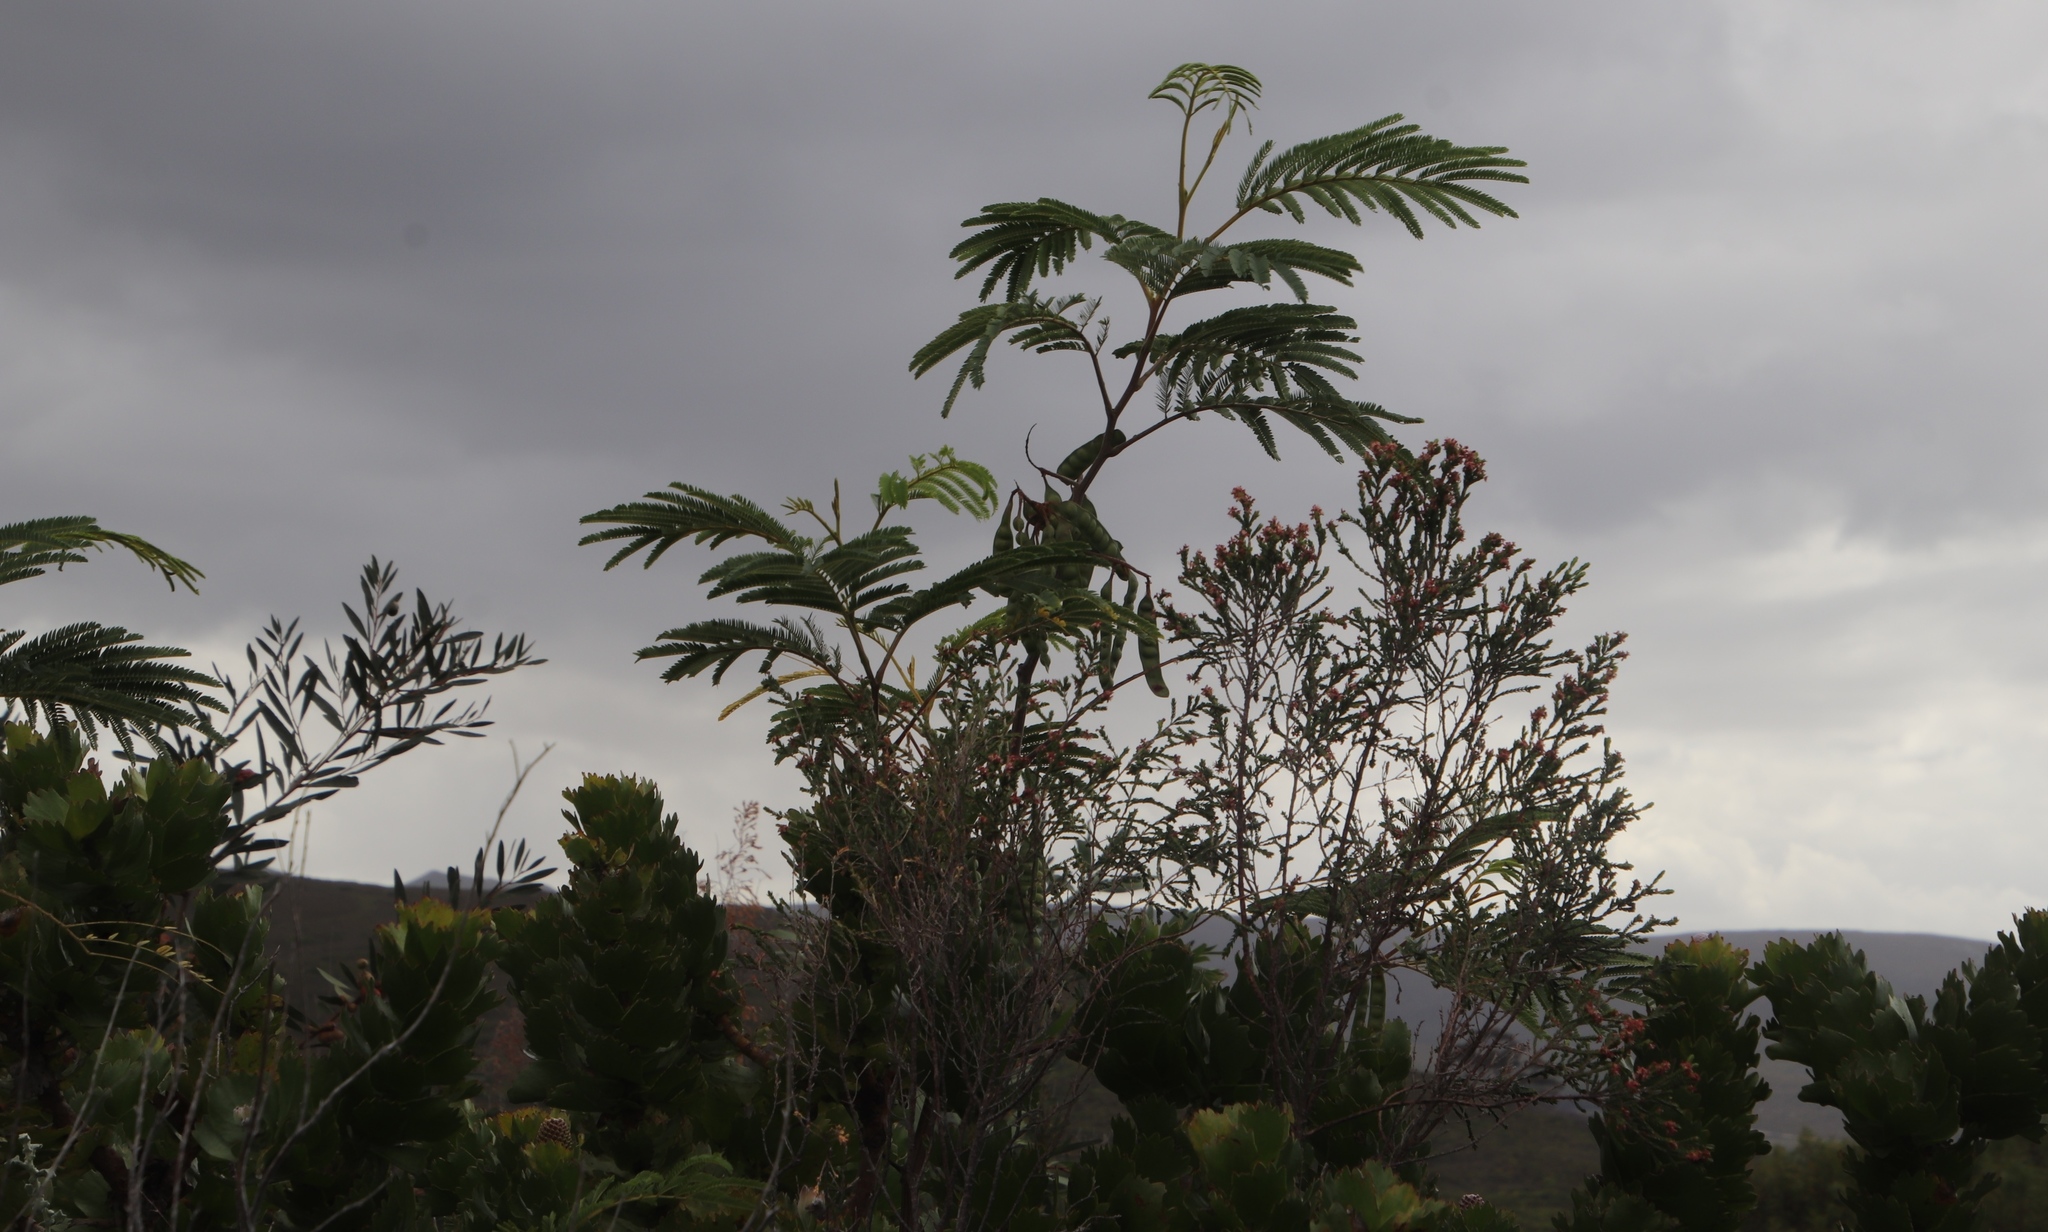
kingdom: Plantae
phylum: Tracheophyta
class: Magnoliopsida
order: Fabales
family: Fabaceae
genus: Paraserianthes
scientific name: Paraserianthes lophantha
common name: Plume albizia
